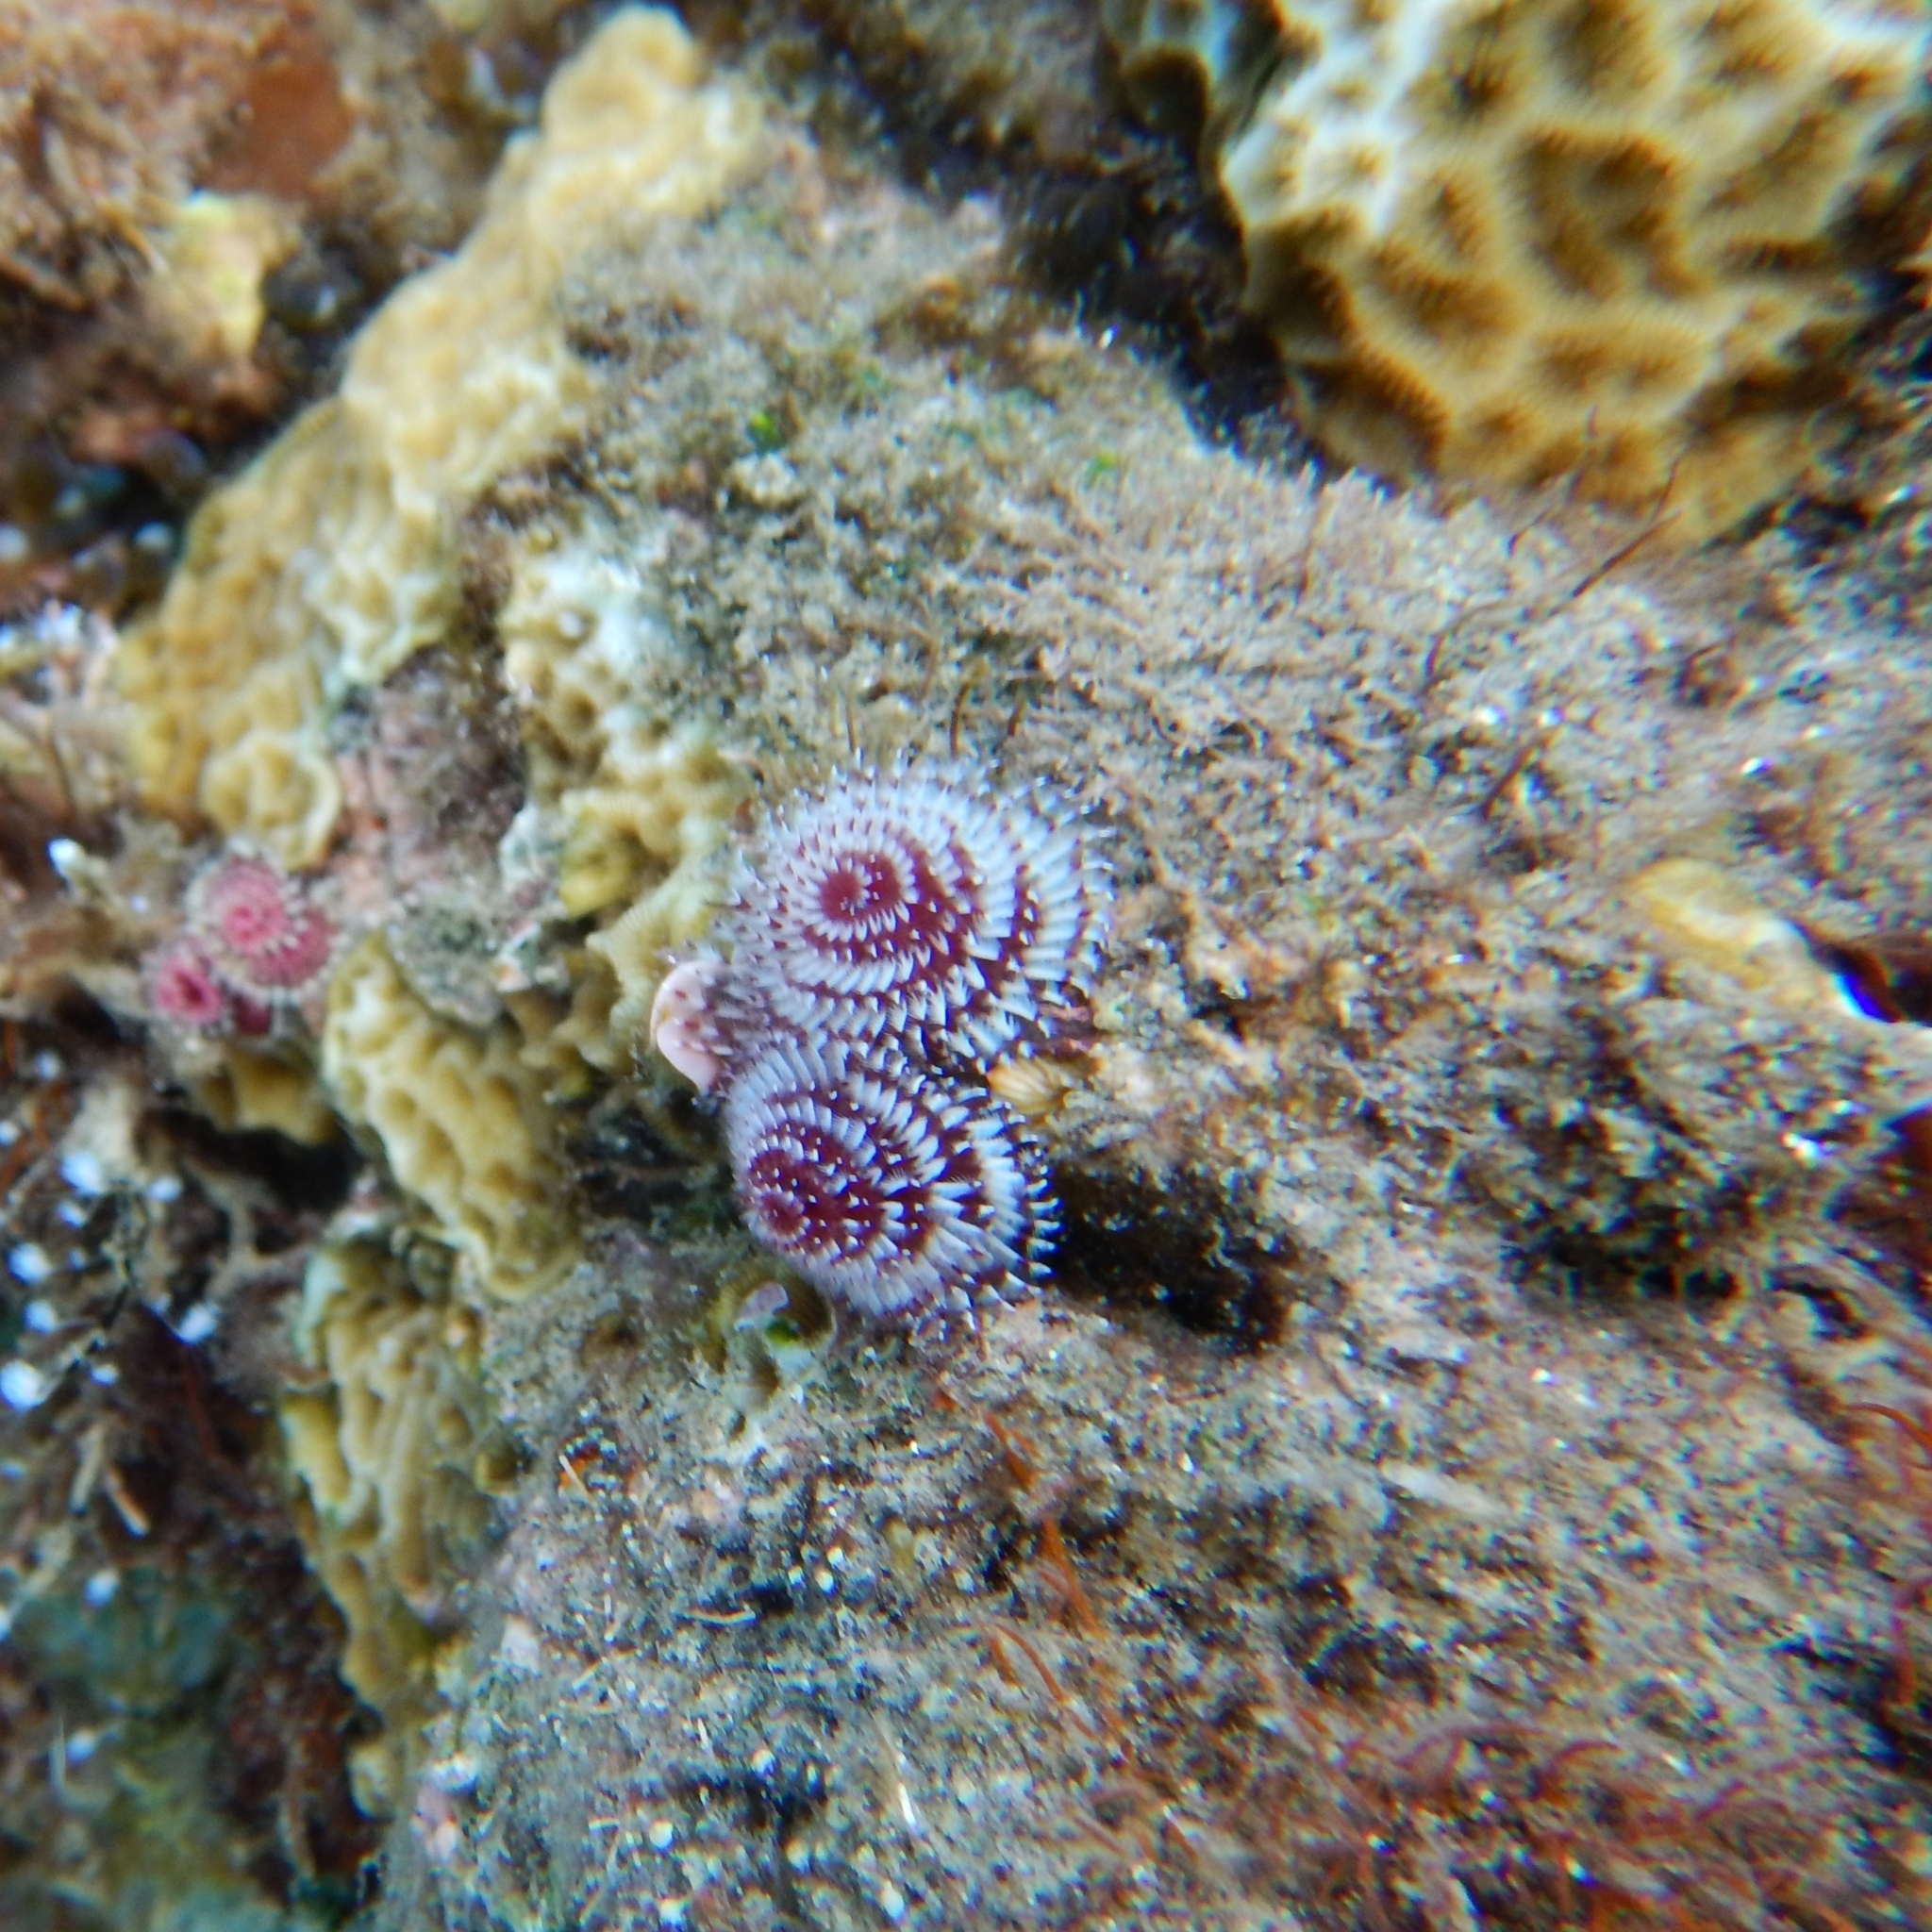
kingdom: Animalia
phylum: Annelida
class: Polychaeta
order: Sabellida
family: Serpulidae
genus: Spirobranchus
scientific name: Spirobranchus giganteus
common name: Christmas tree worm
